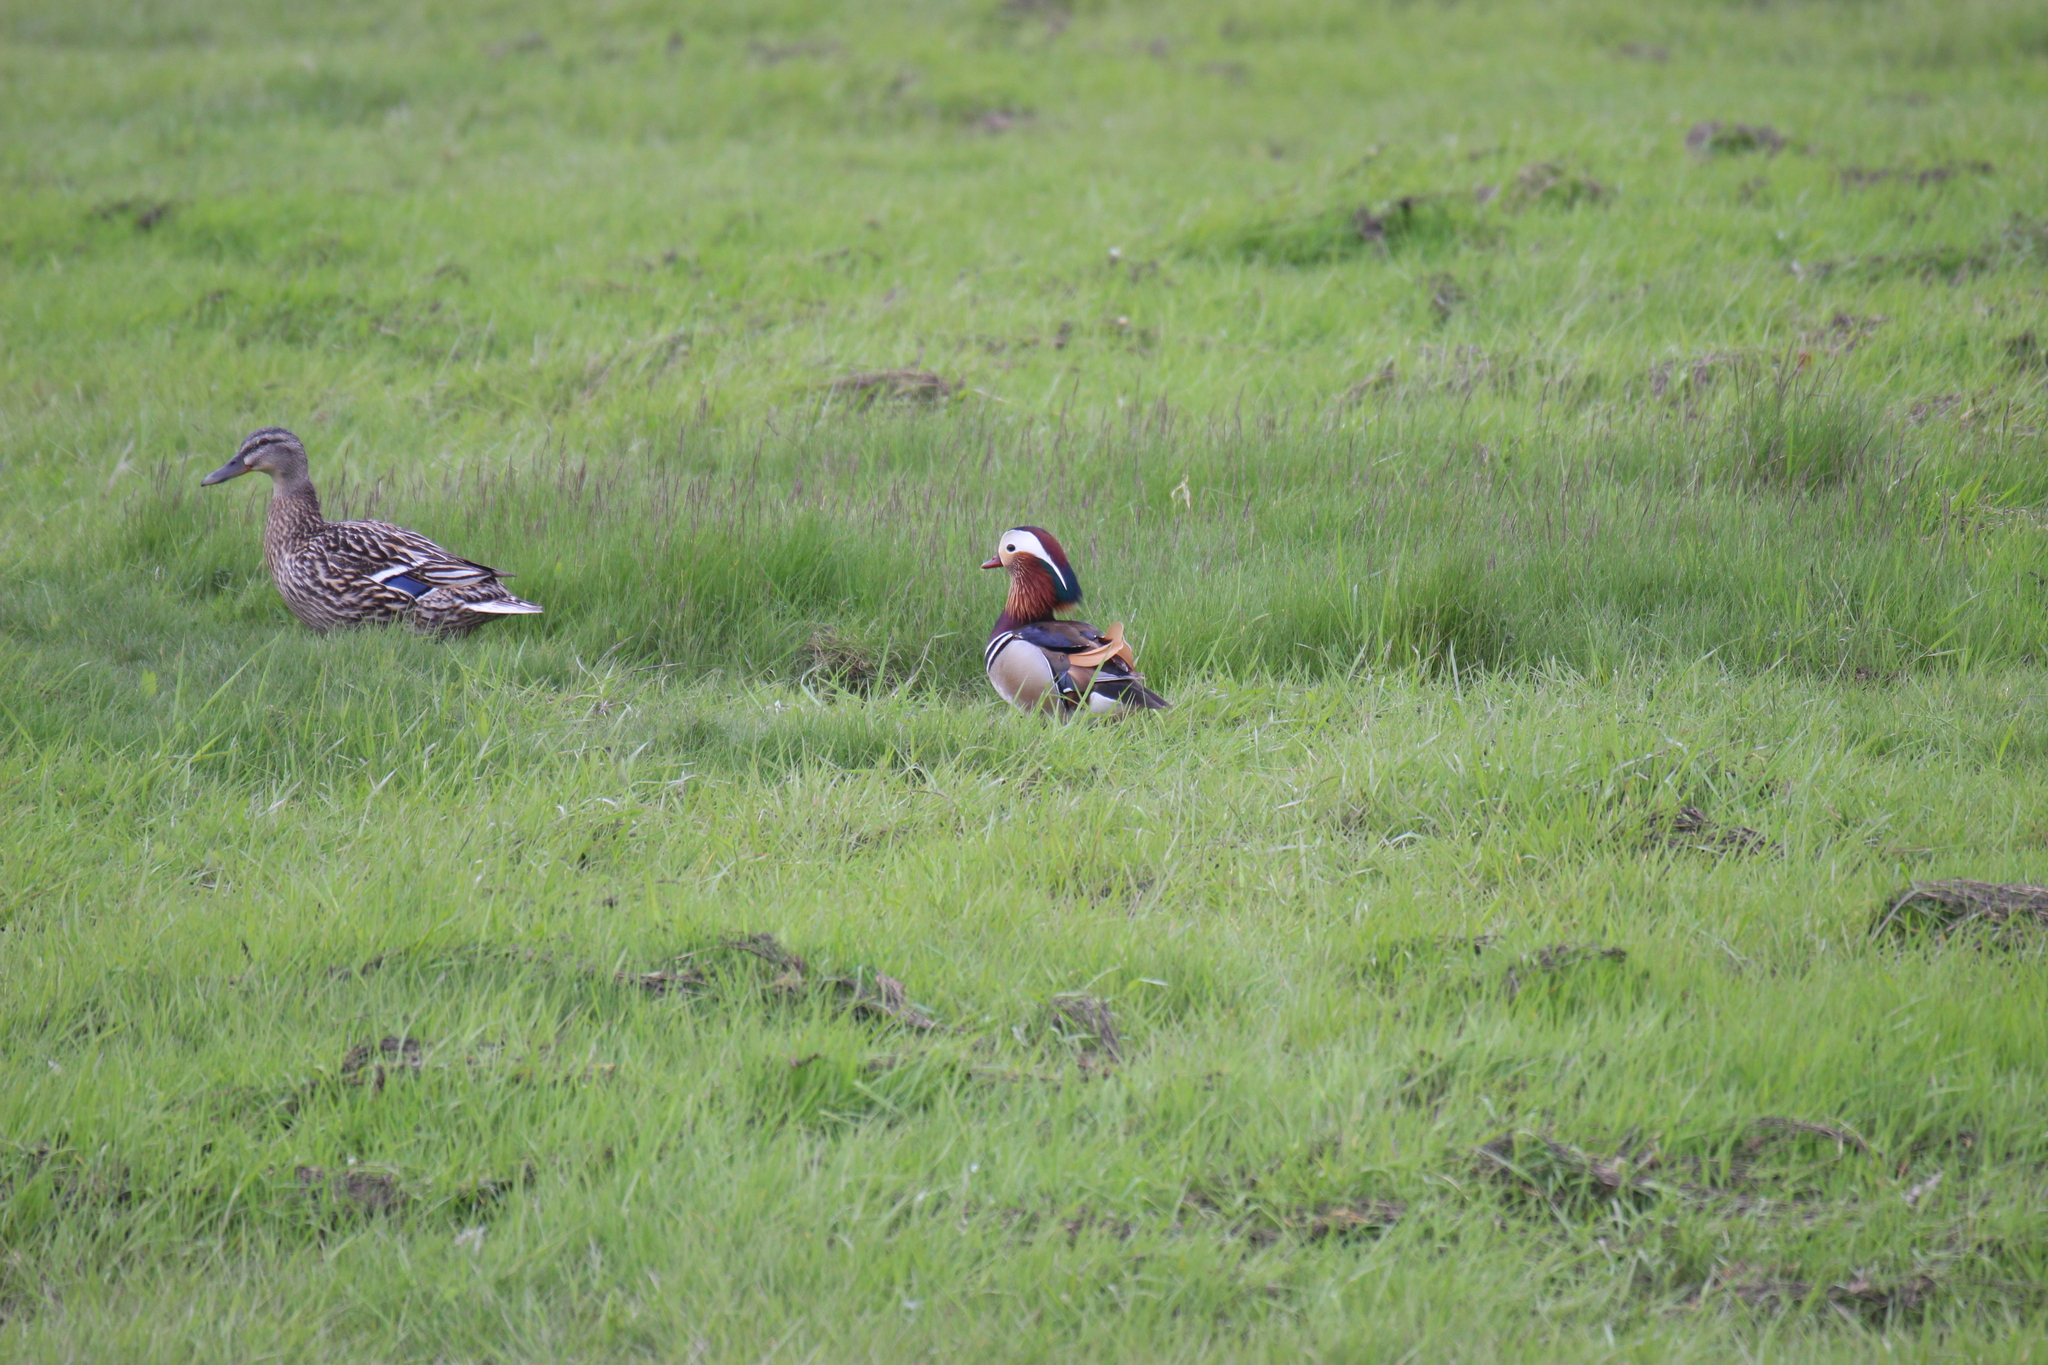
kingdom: Animalia
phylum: Chordata
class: Aves
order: Anseriformes
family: Anatidae
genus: Aix
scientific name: Aix galericulata
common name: Mandarin duck
